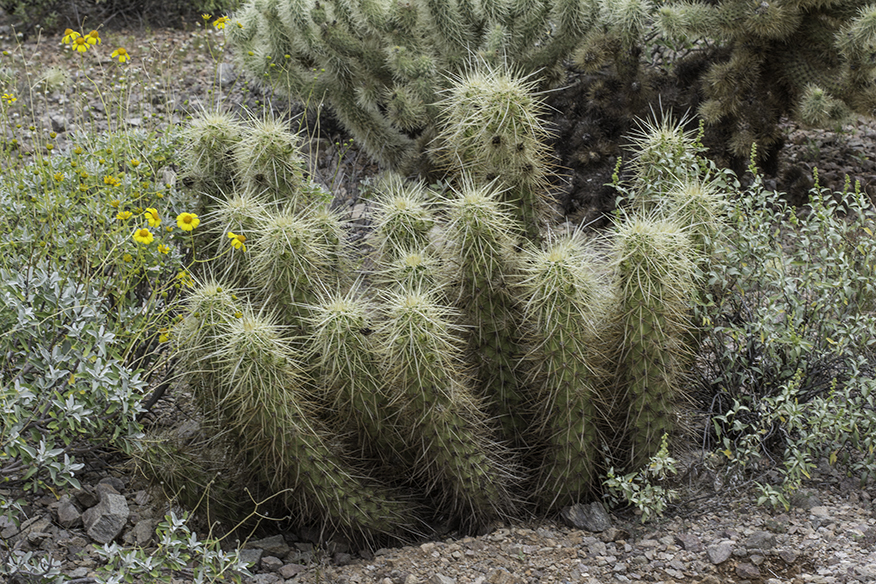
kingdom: Plantae
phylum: Tracheophyta
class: Magnoliopsida
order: Caryophyllales
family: Cactaceae
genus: Echinocereus
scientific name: Echinocereus nicholii
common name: Nichol's hedgehog cactus
